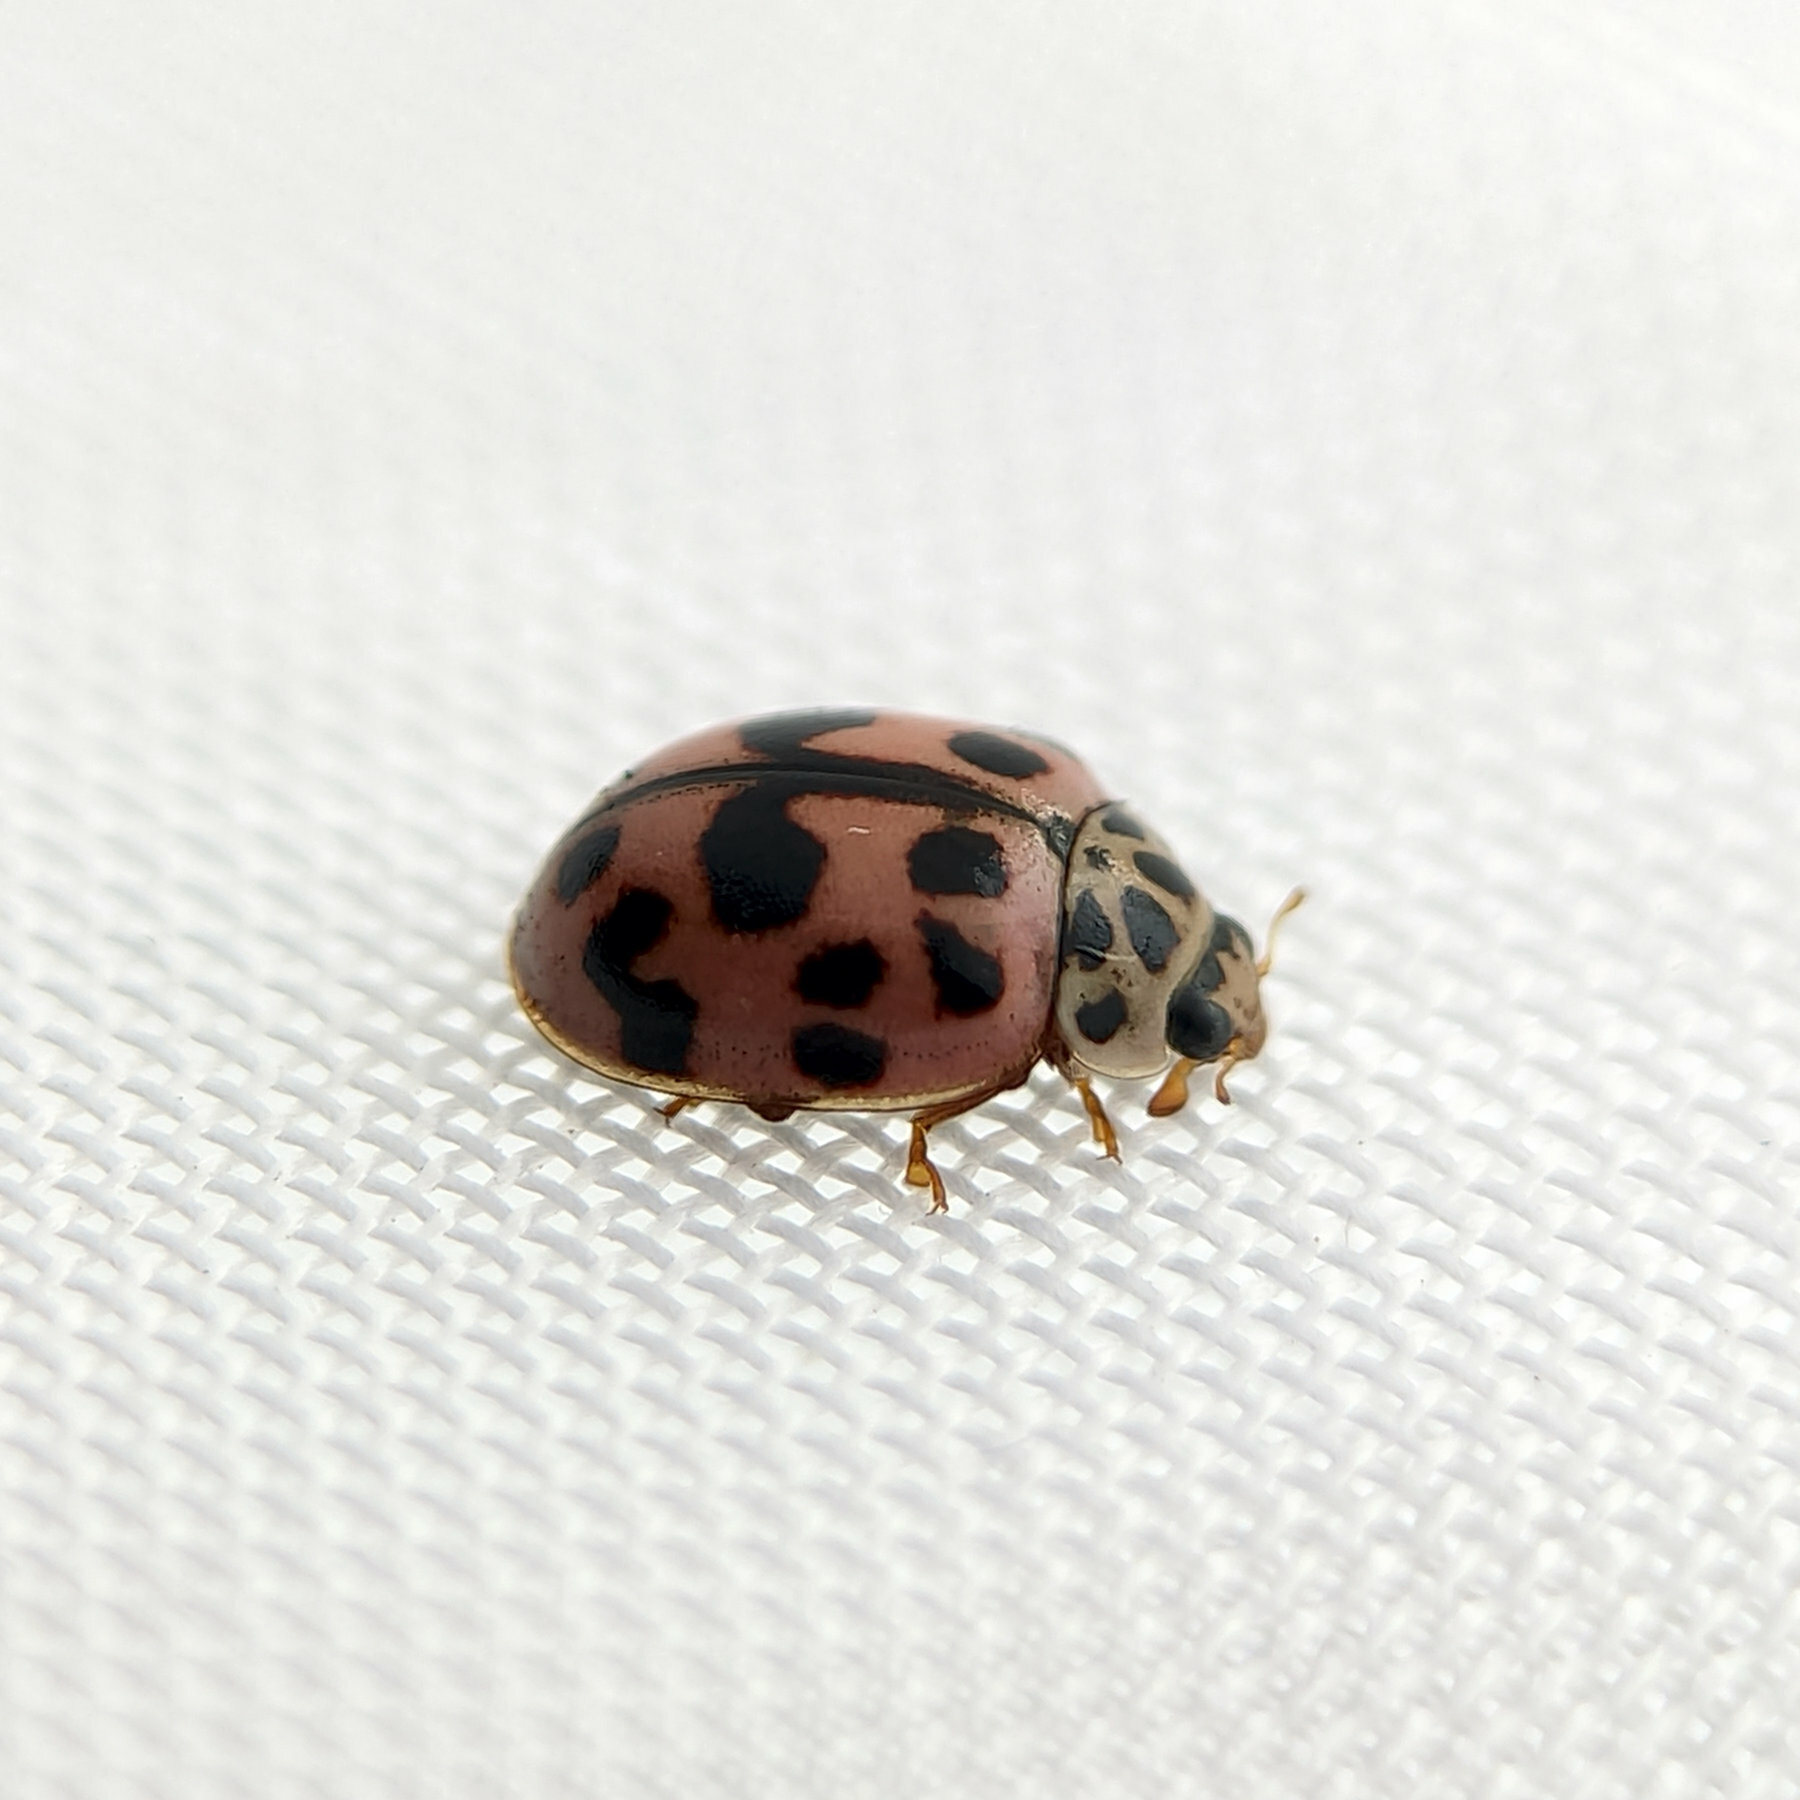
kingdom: Animalia
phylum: Arthropoda
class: Insecta
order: Coleoptera
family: Coccinellidae
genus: Oenopia
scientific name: Oenopia conglobata
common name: Ladybird beetle
